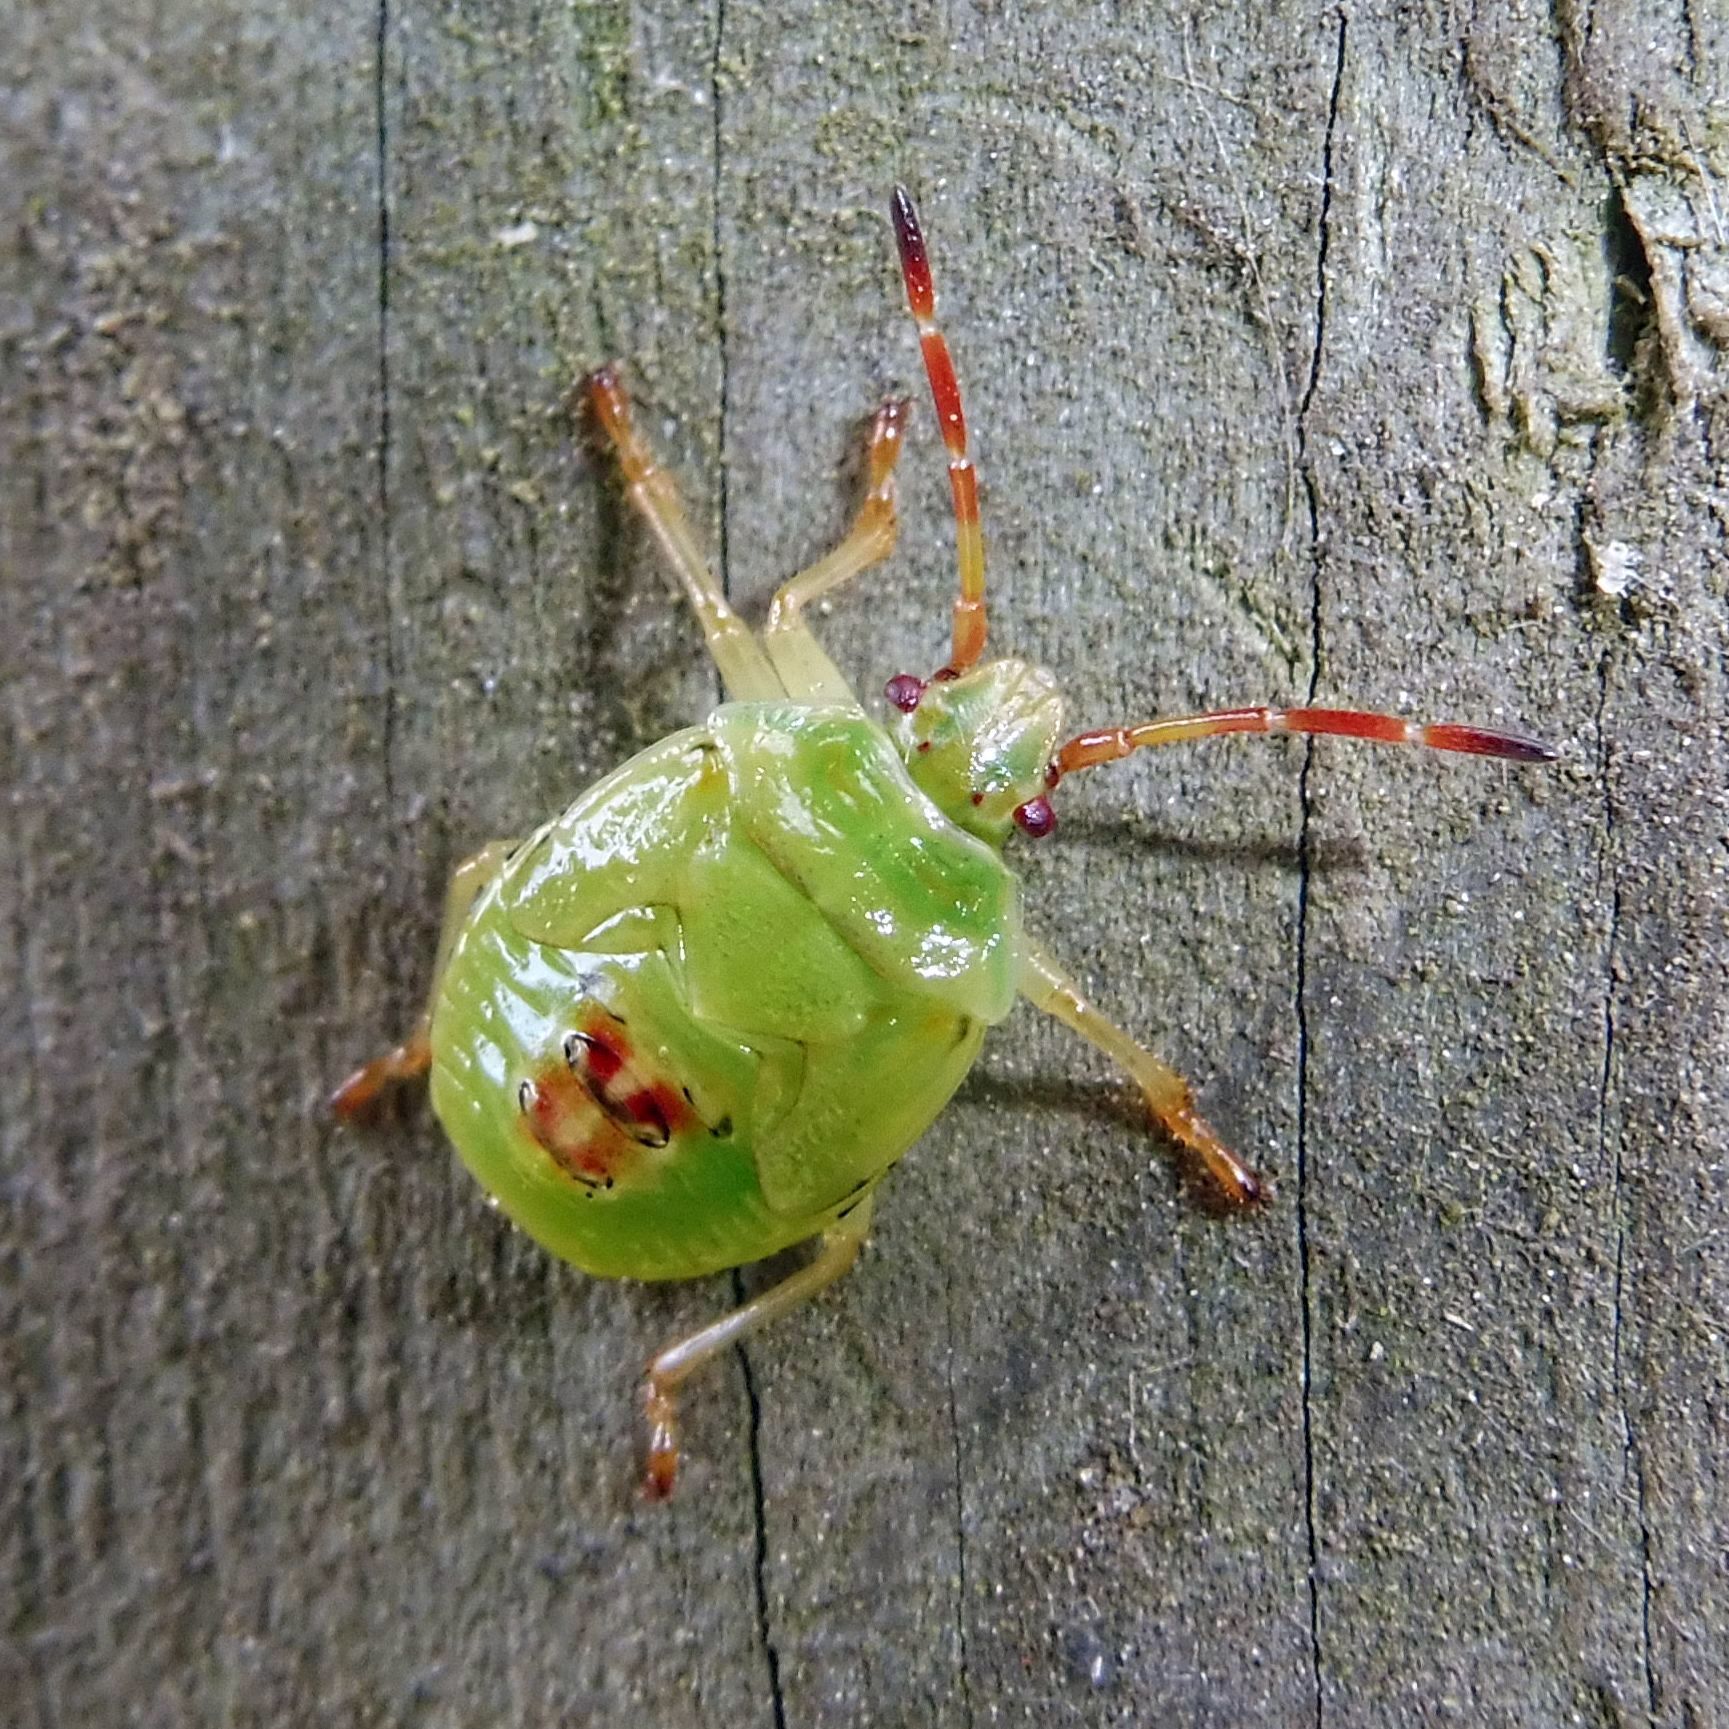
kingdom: Animalia
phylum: Arthropoda
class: Insecta
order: Hemiptera
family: Acanthosomatidae
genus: Elasmostethus
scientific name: Elasmostethus interstinctus
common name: Birch shieldbug
